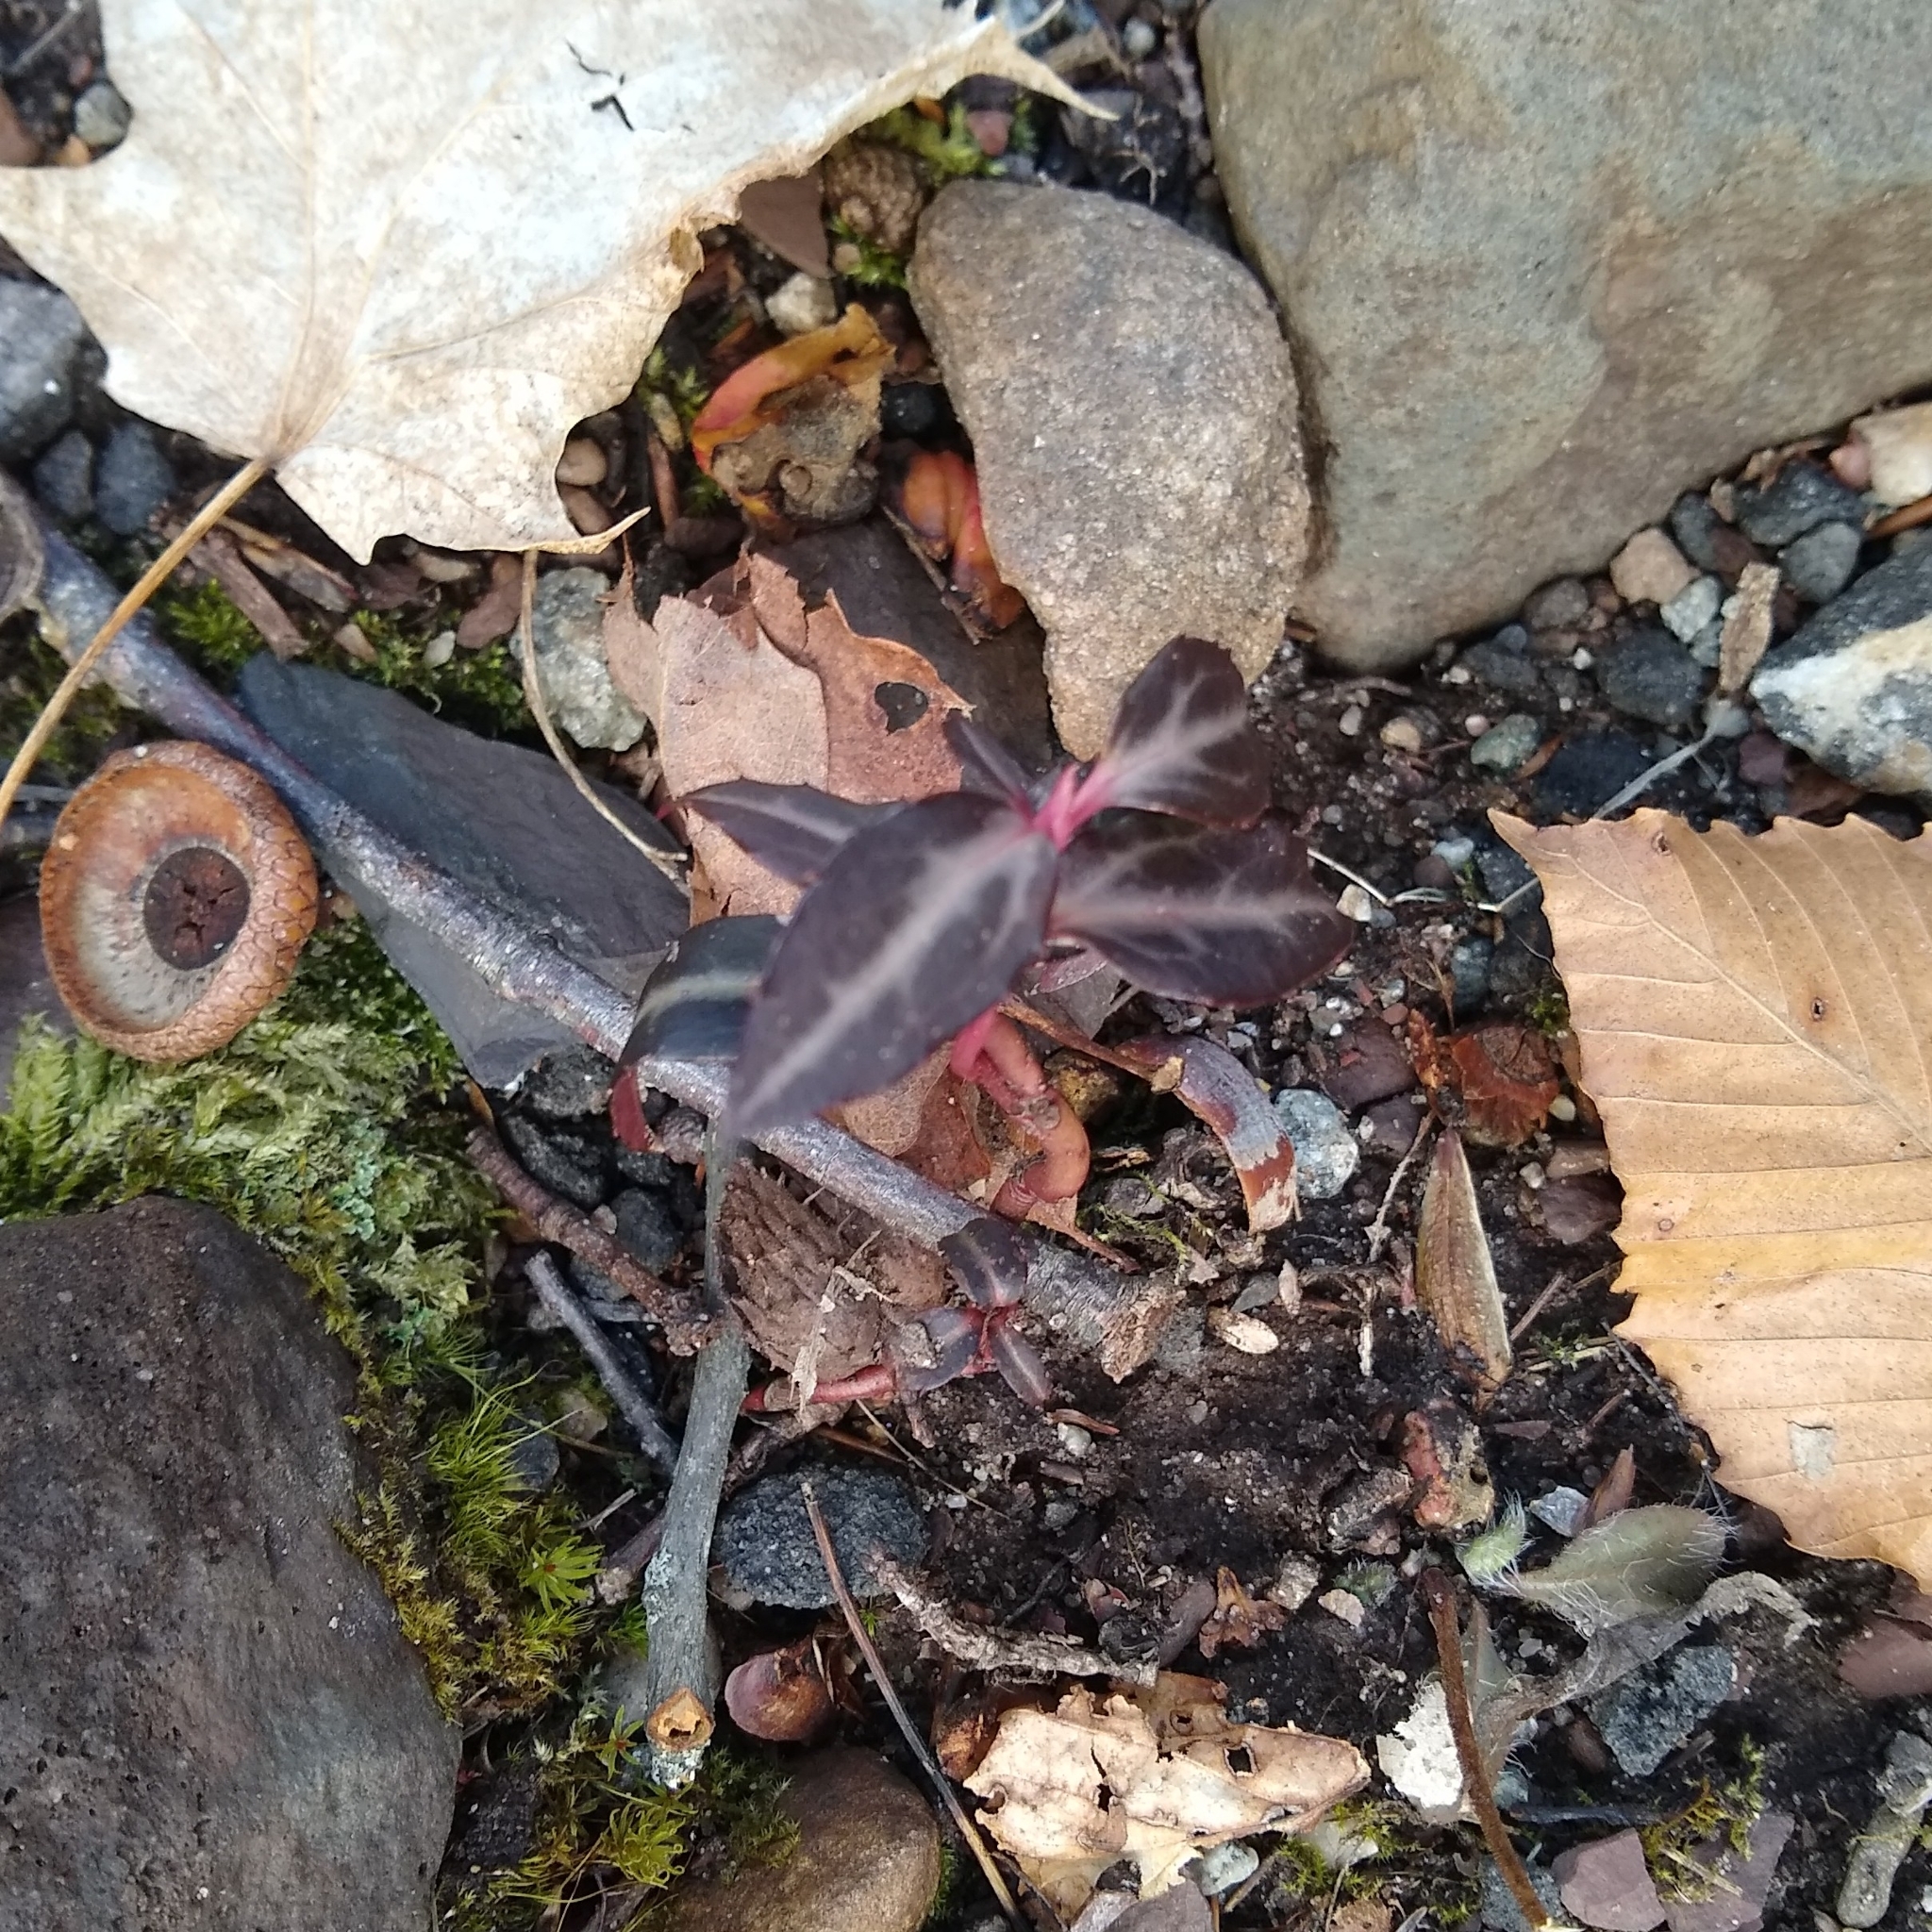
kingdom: Plantae
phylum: Tracheophyta
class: Magnoliopsida
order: Ericales
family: Ericaceae
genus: Chimaphila
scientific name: Chimaphila maculata
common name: Spotted pipsissewa
